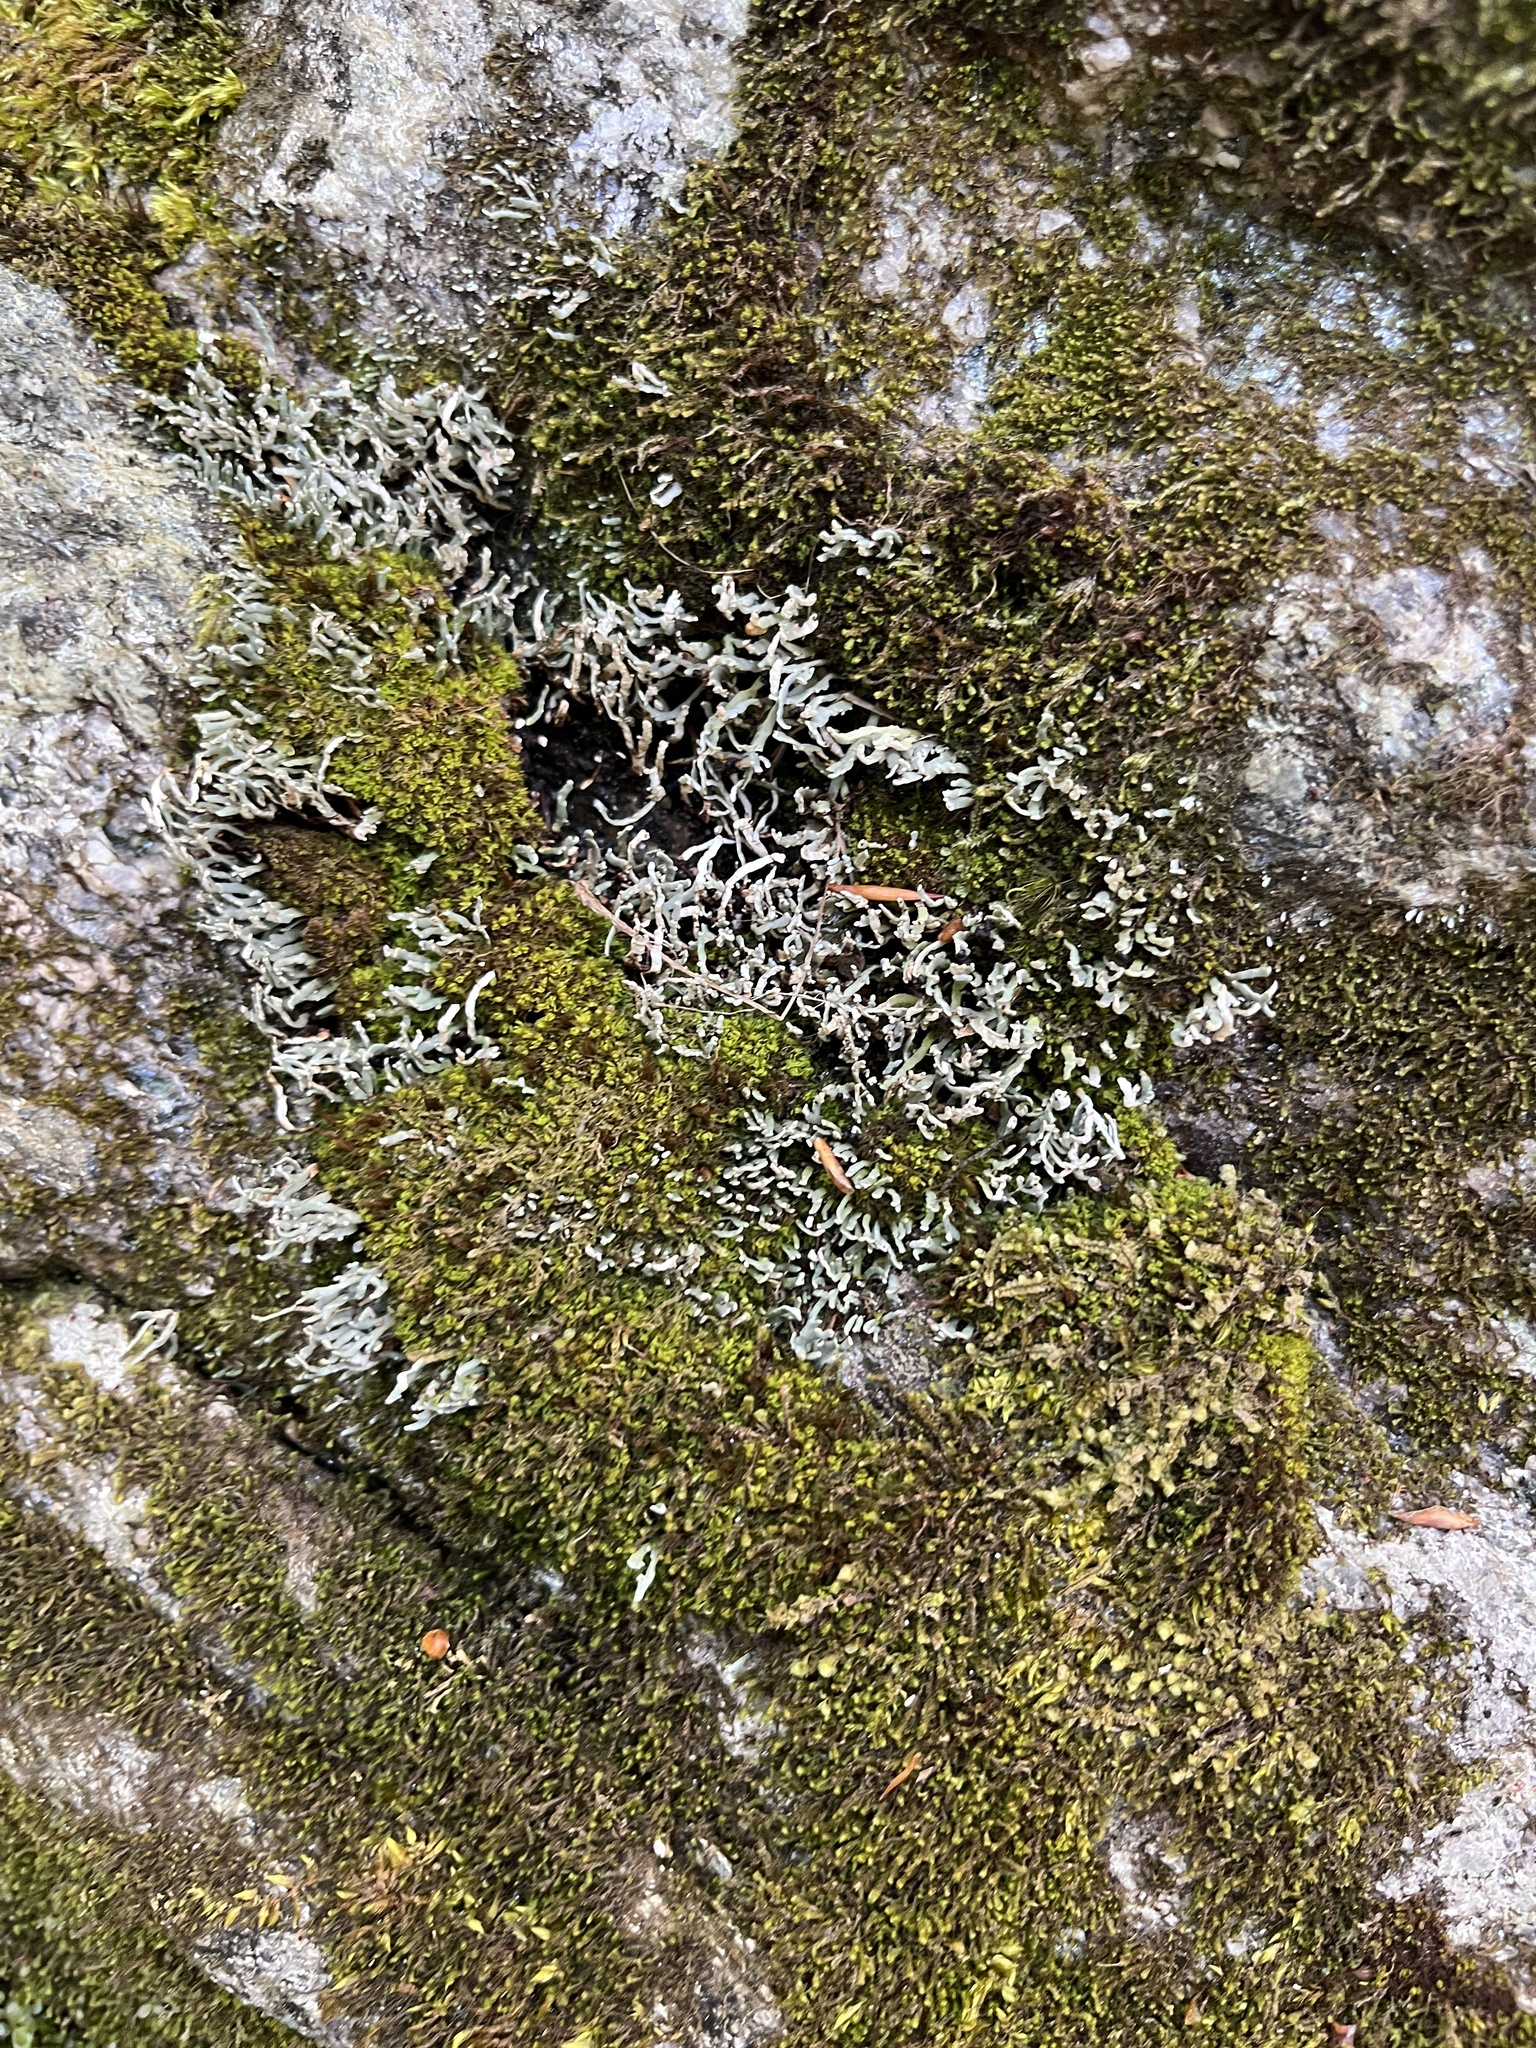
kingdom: Fungi
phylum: Ascomycota
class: Lecanoromycetes
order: Lecanorales
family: Cladoniaceae
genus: Cetradonia
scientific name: Cetradonia linearis
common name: Rock gnome lichen
